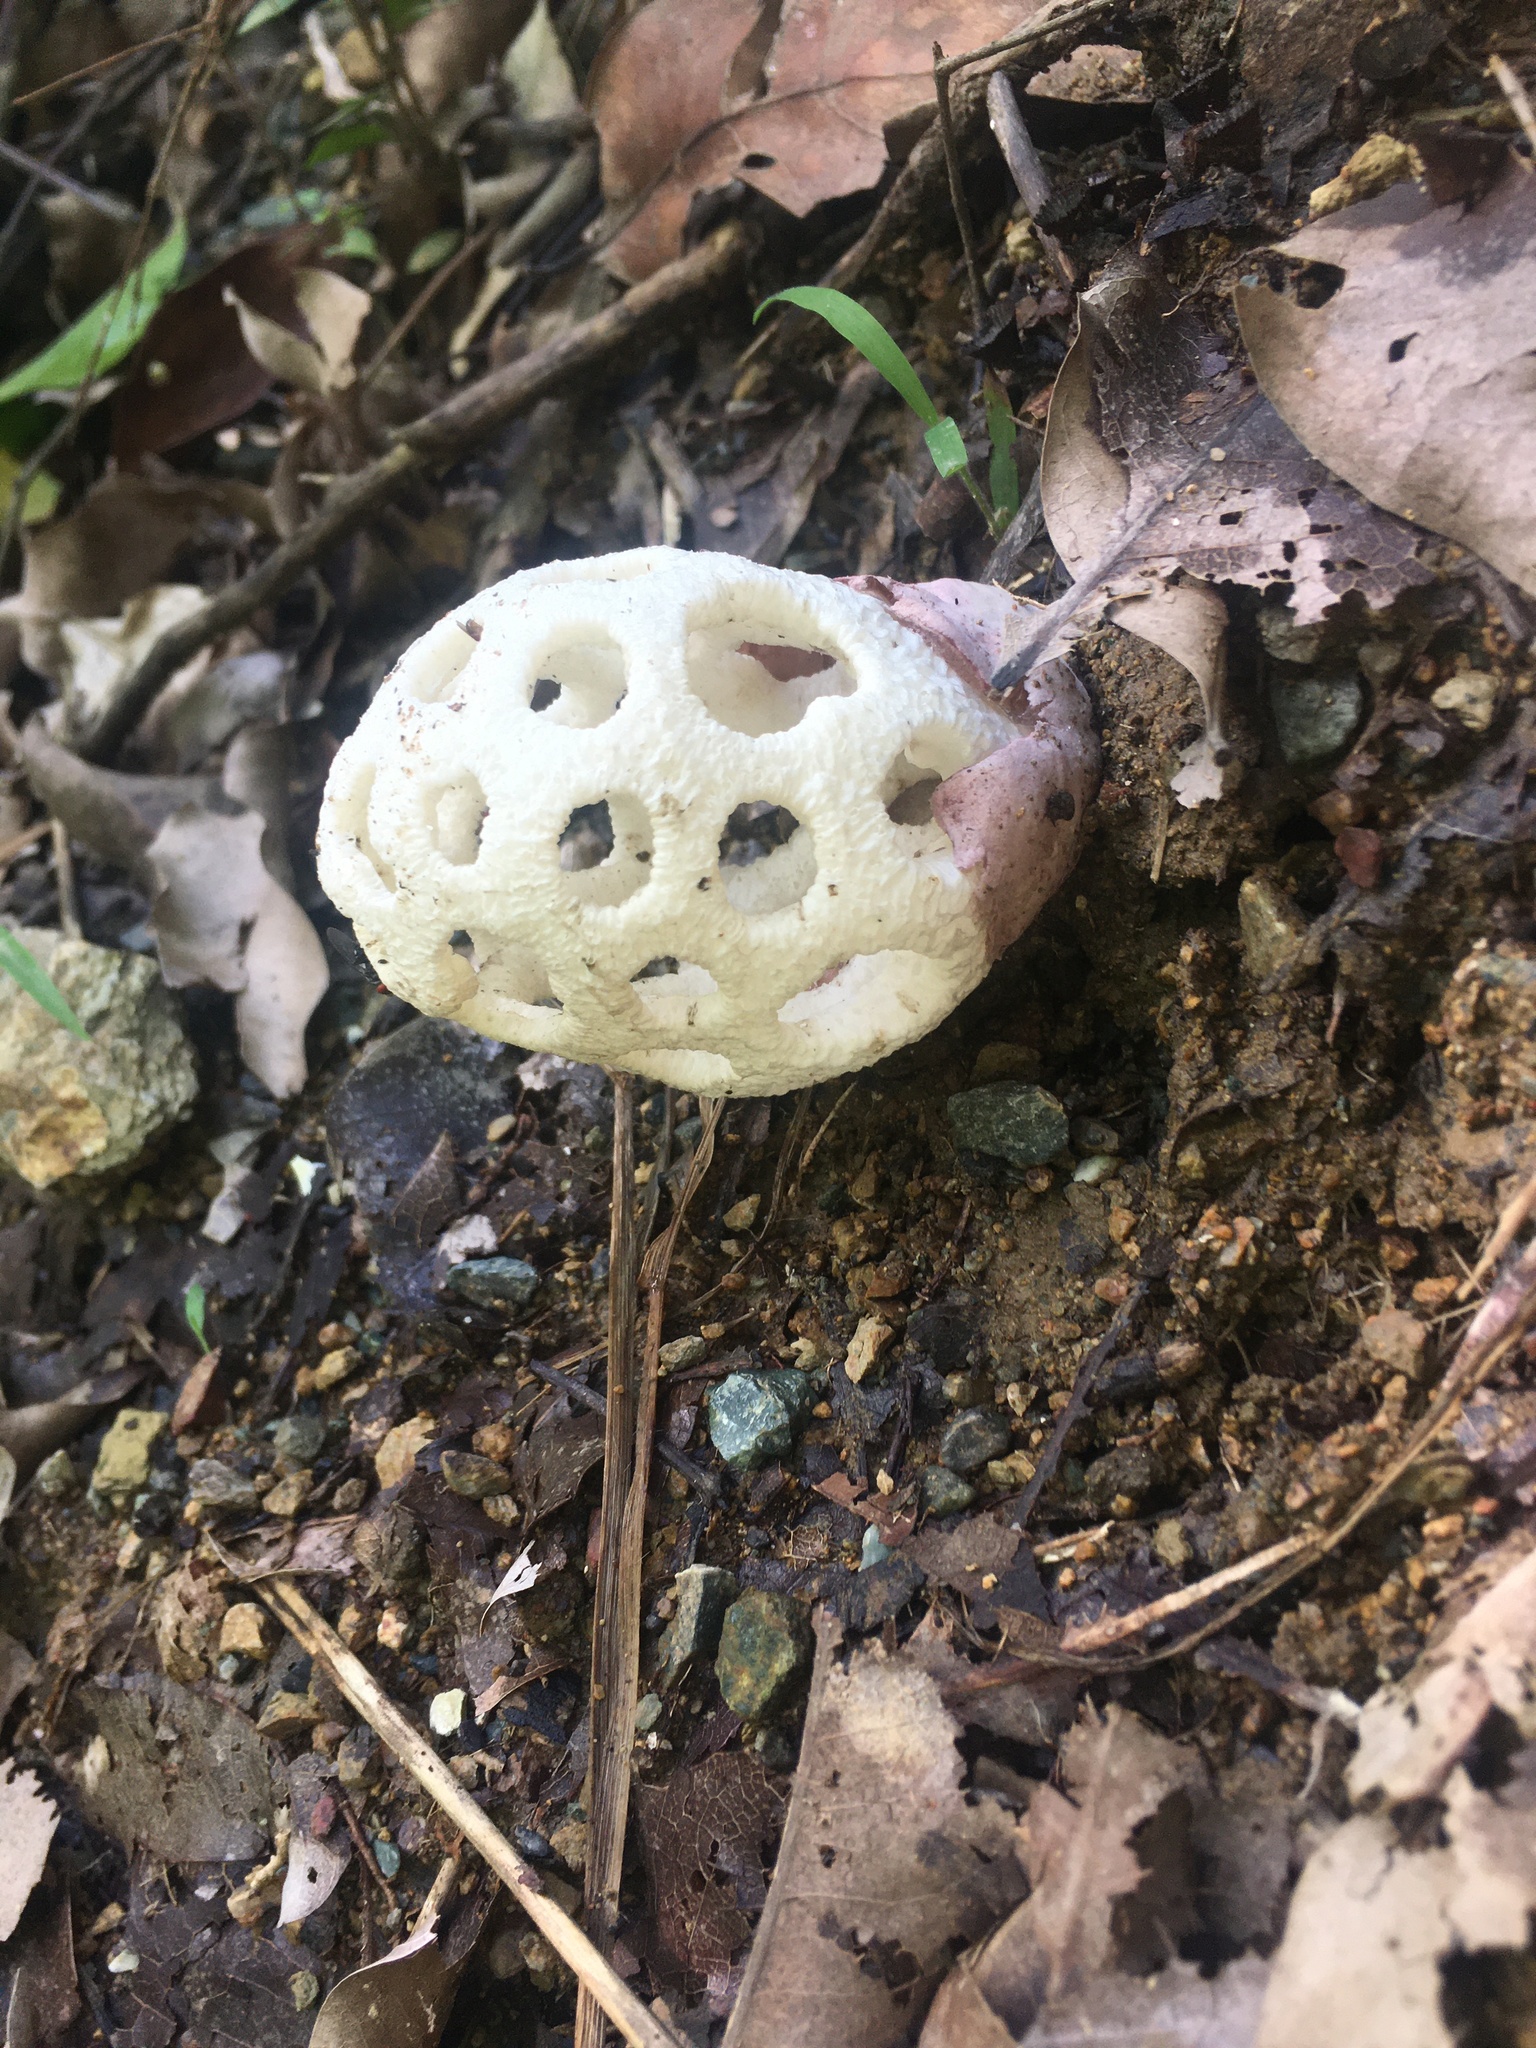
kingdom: Fungi
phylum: Basidiomycota
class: Agaricomycetes
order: Phallales
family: Phallaceae
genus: Clathrus
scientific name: Clathrus roseovolvatus
